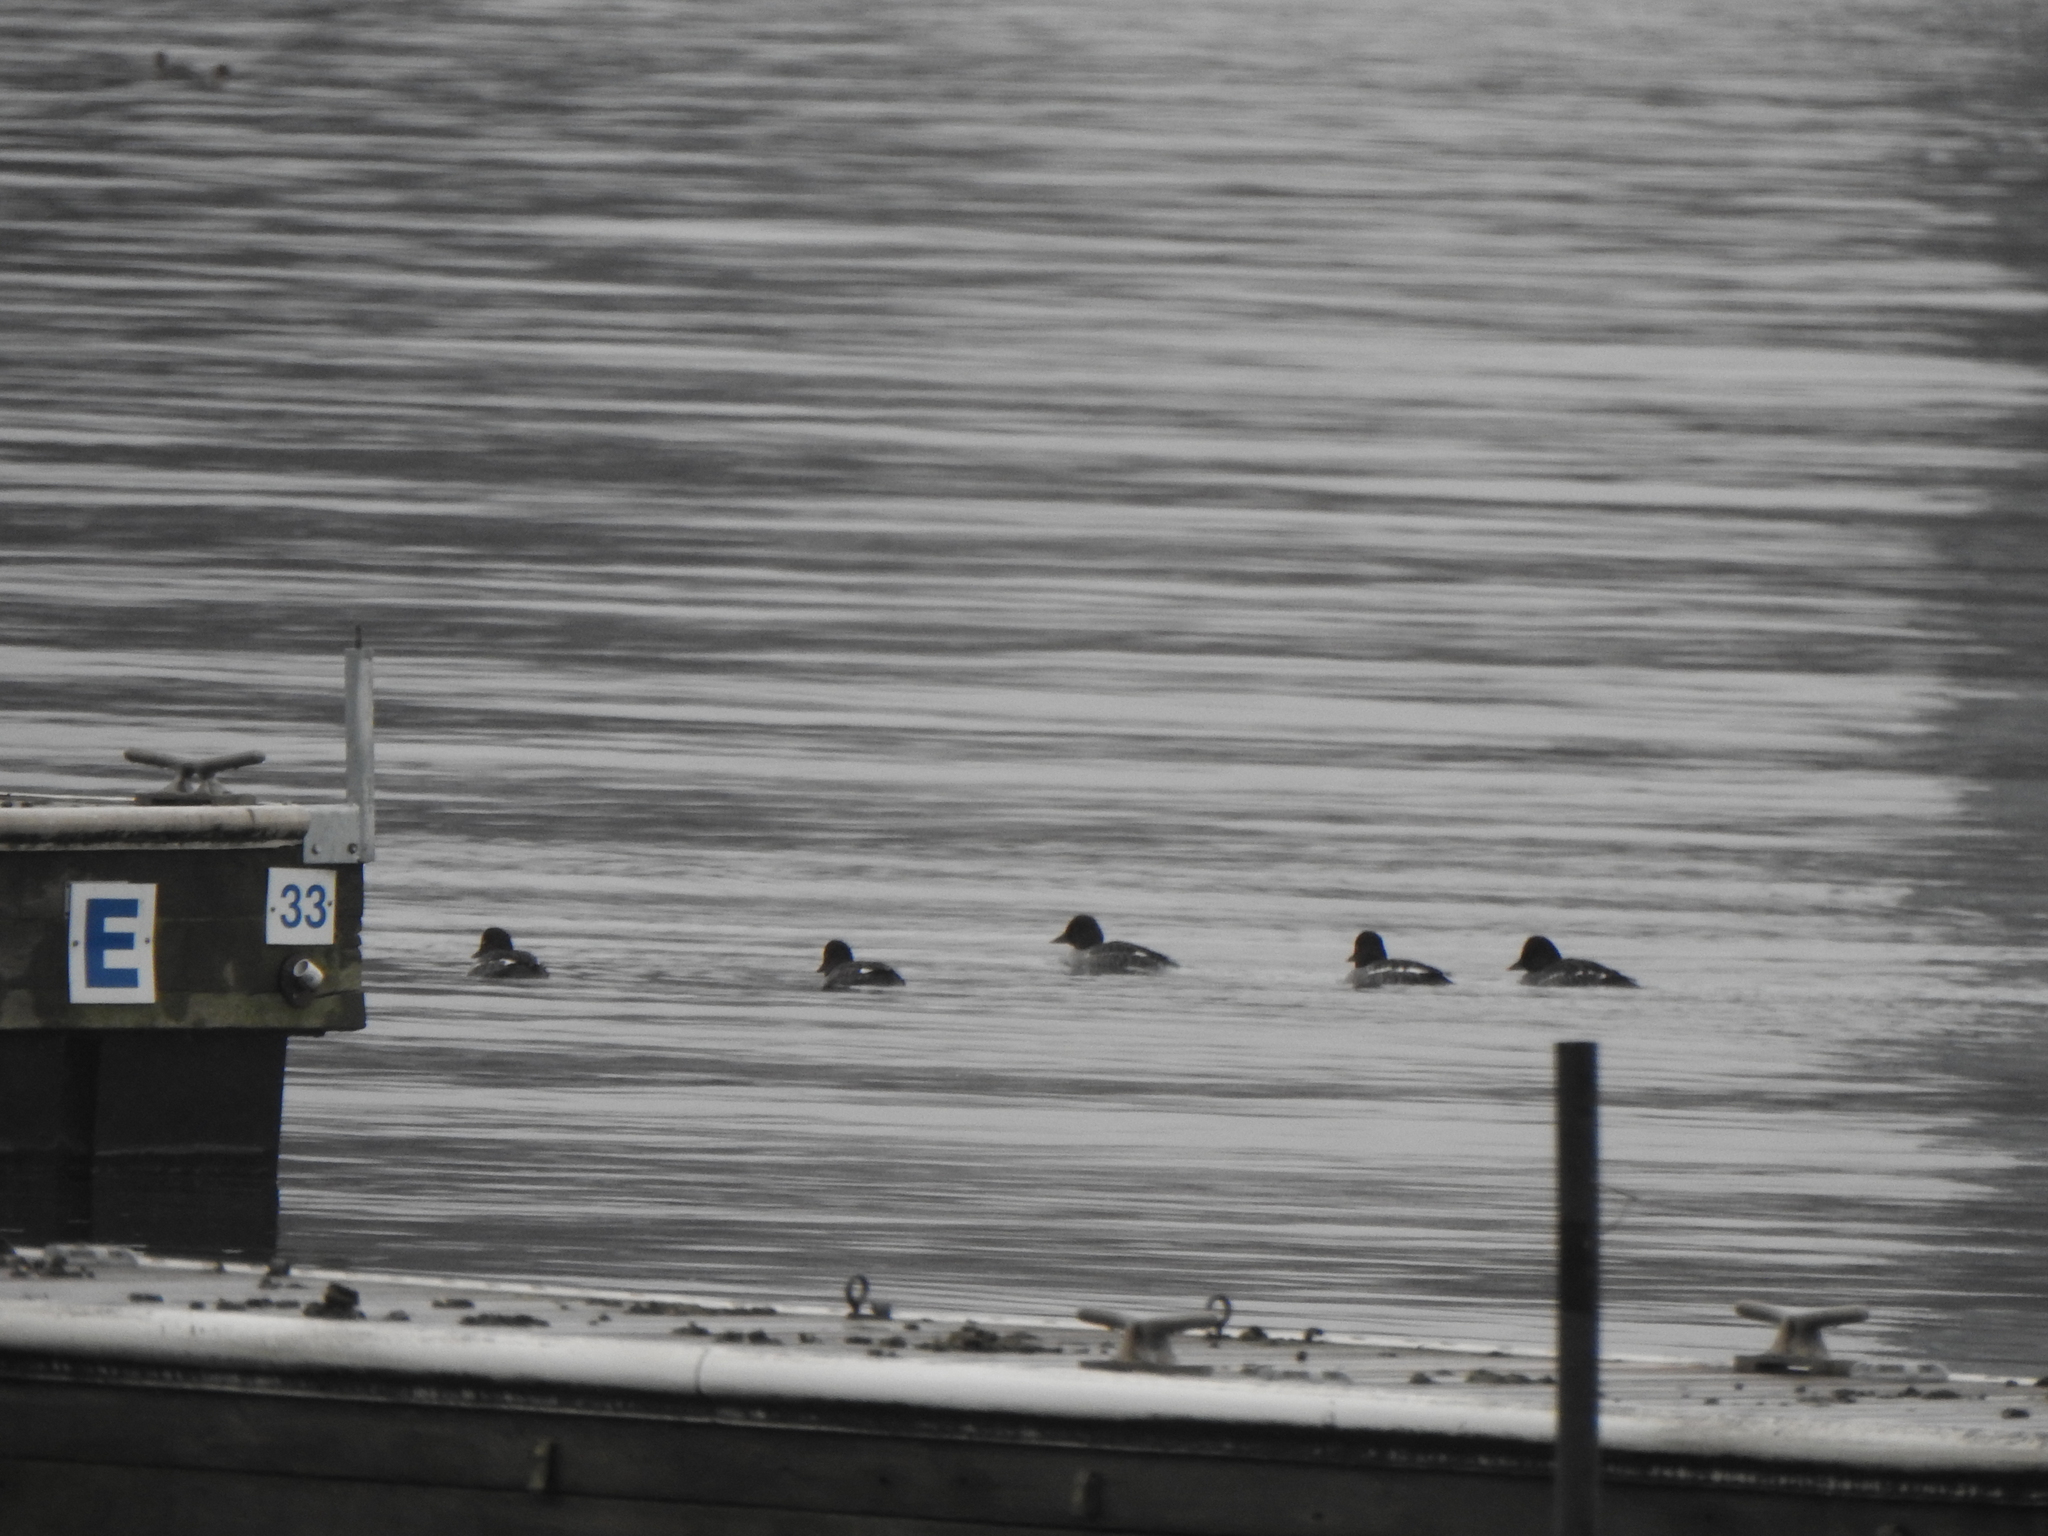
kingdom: Animalia
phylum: Chordata
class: Aves
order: Anseriformes
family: Anatidae
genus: Bucephala
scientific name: Bucephala clangula
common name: Common goldeneye
